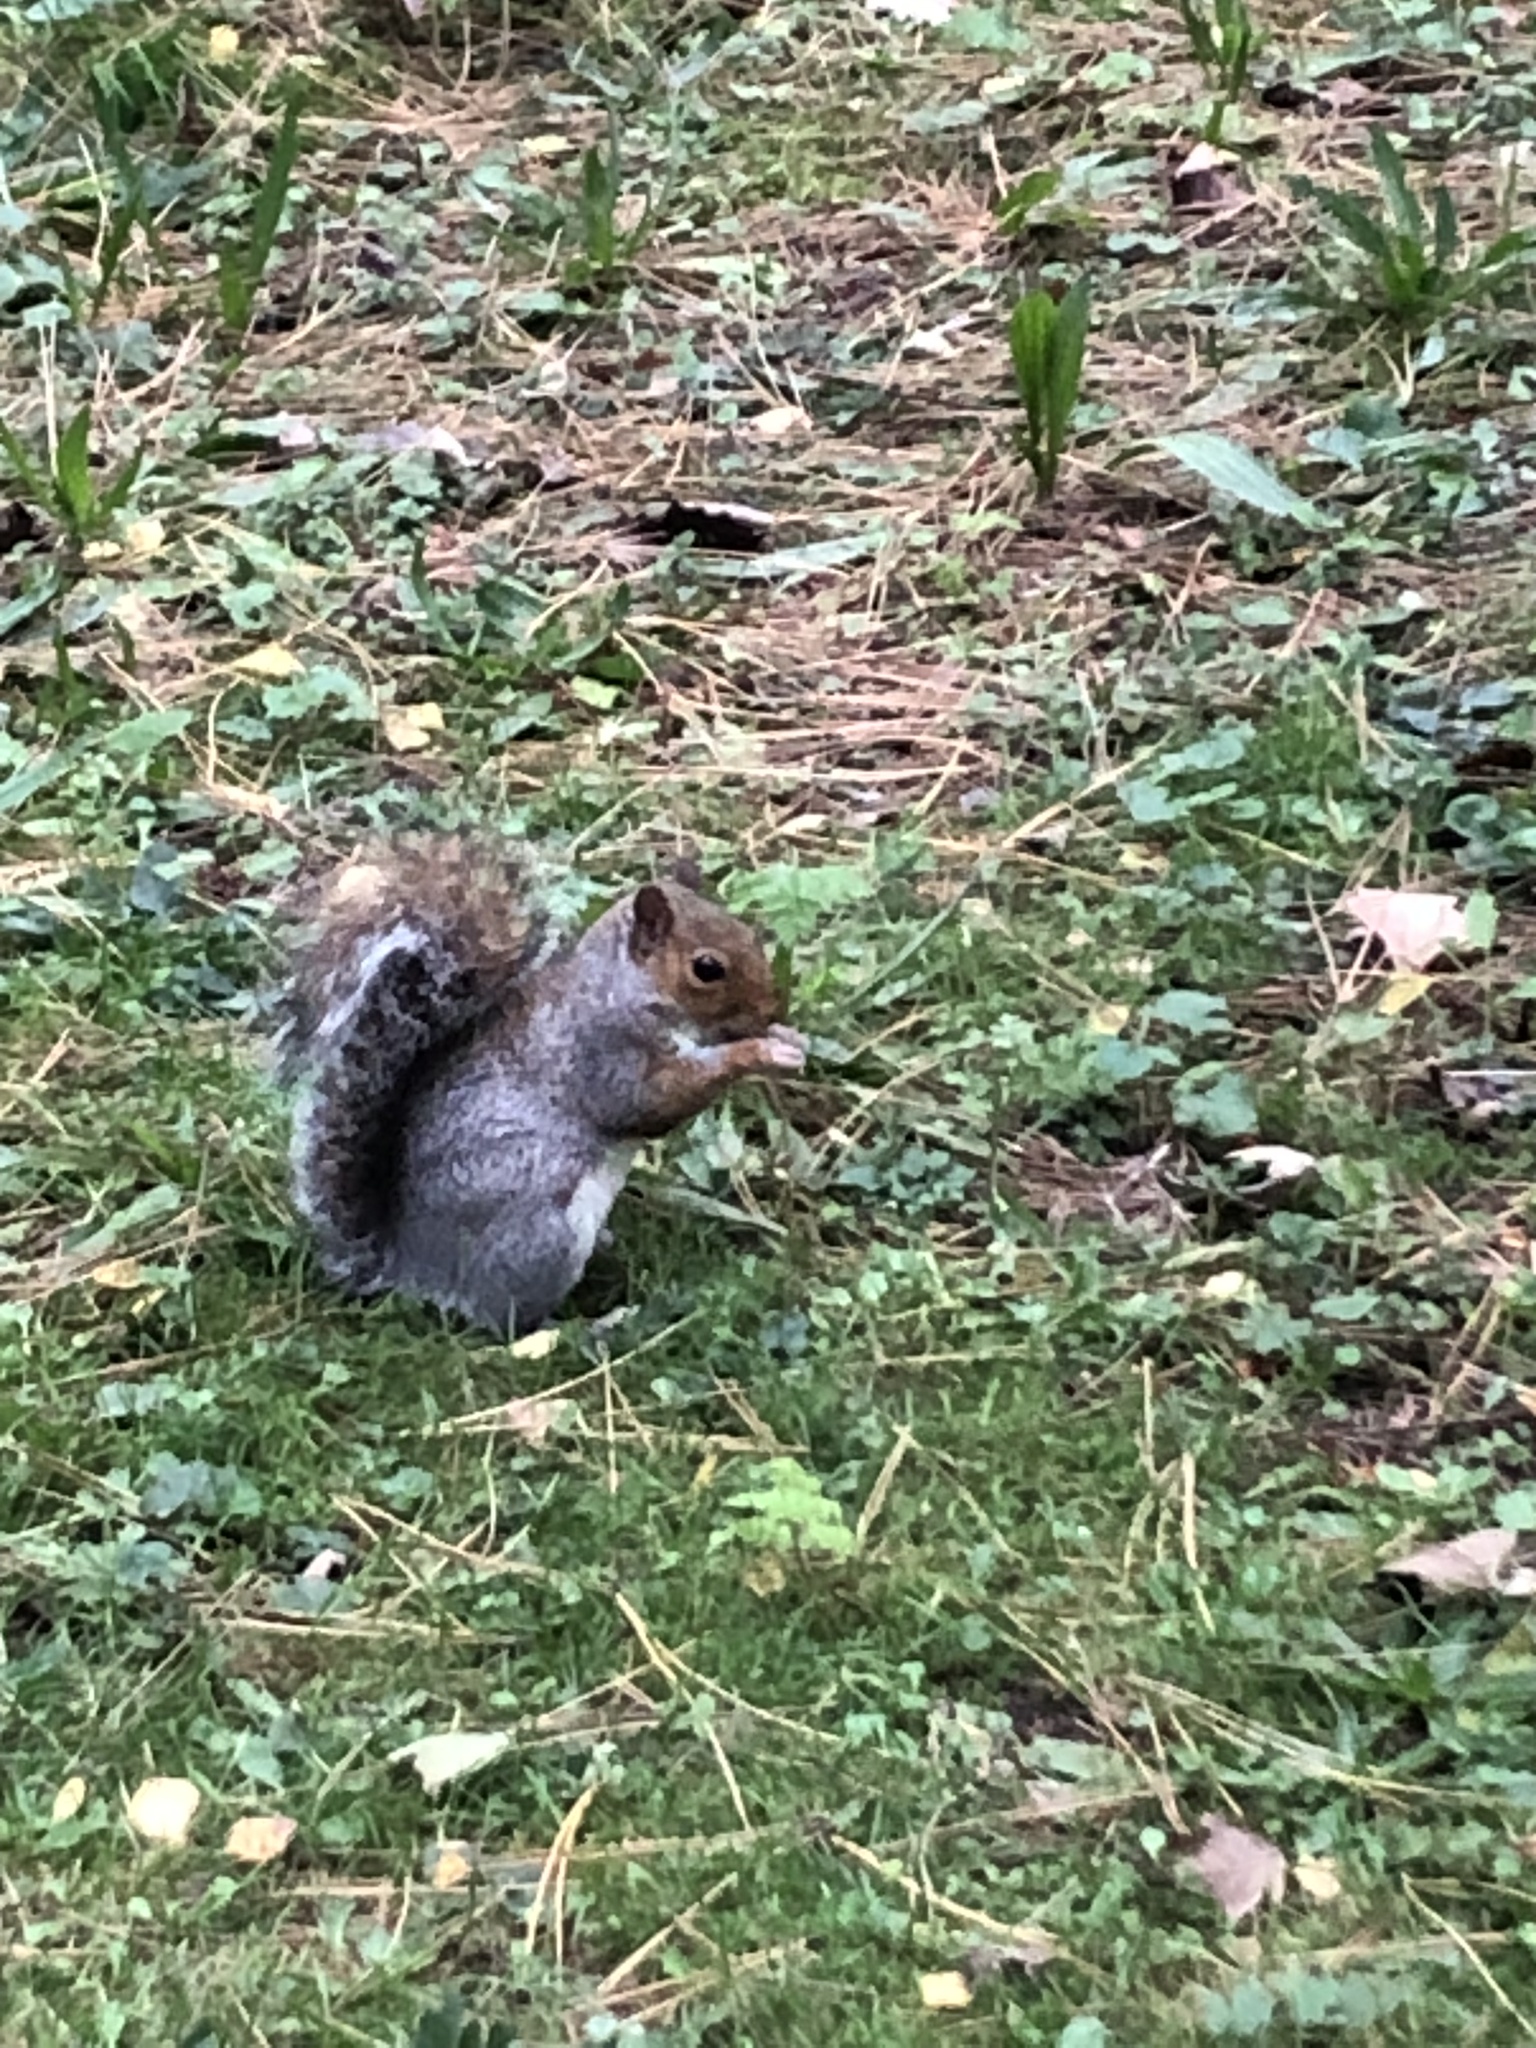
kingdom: Animalia
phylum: Chordata
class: Mammalia
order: Rodentia
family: Sciuridae
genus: Sciurus
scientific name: Sciurus carolinensis
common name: Eastern gray squirrel
